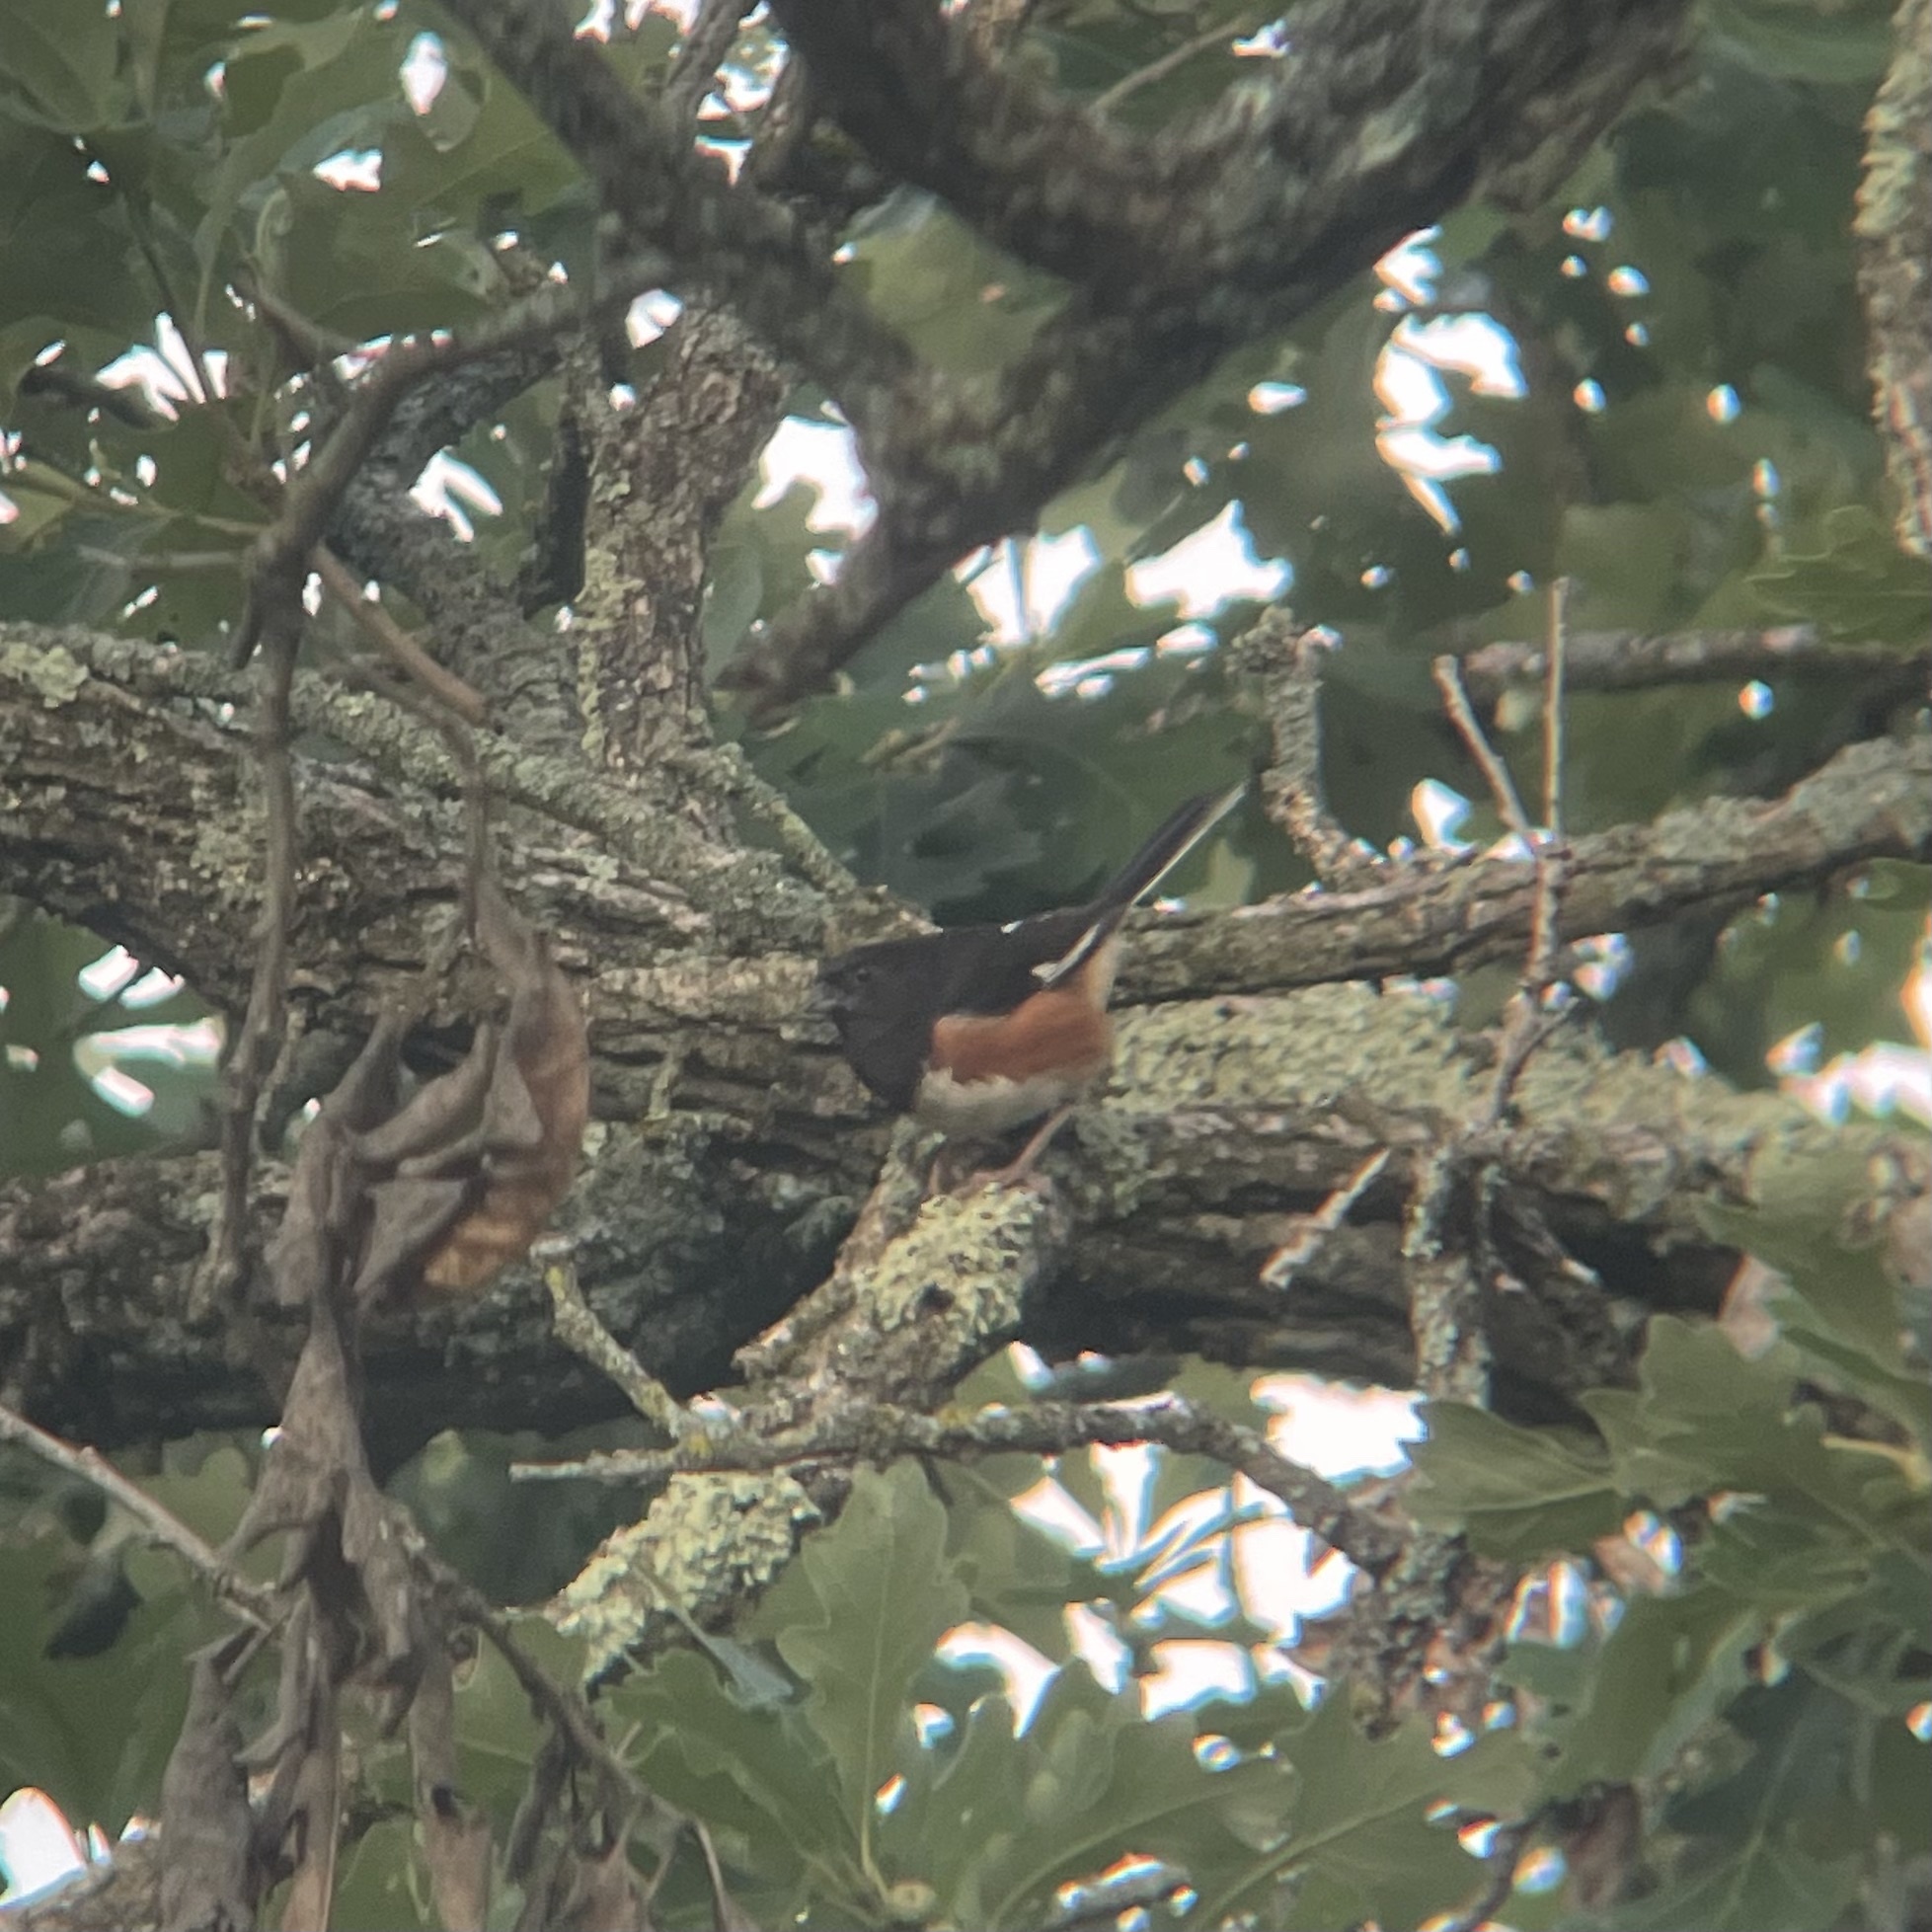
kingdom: Animalia
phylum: Chordata
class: Aves
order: Passeriformes
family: Passerellidae
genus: Pipilo
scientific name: Pipilo erythrophthalmus
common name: Eastern towhee
